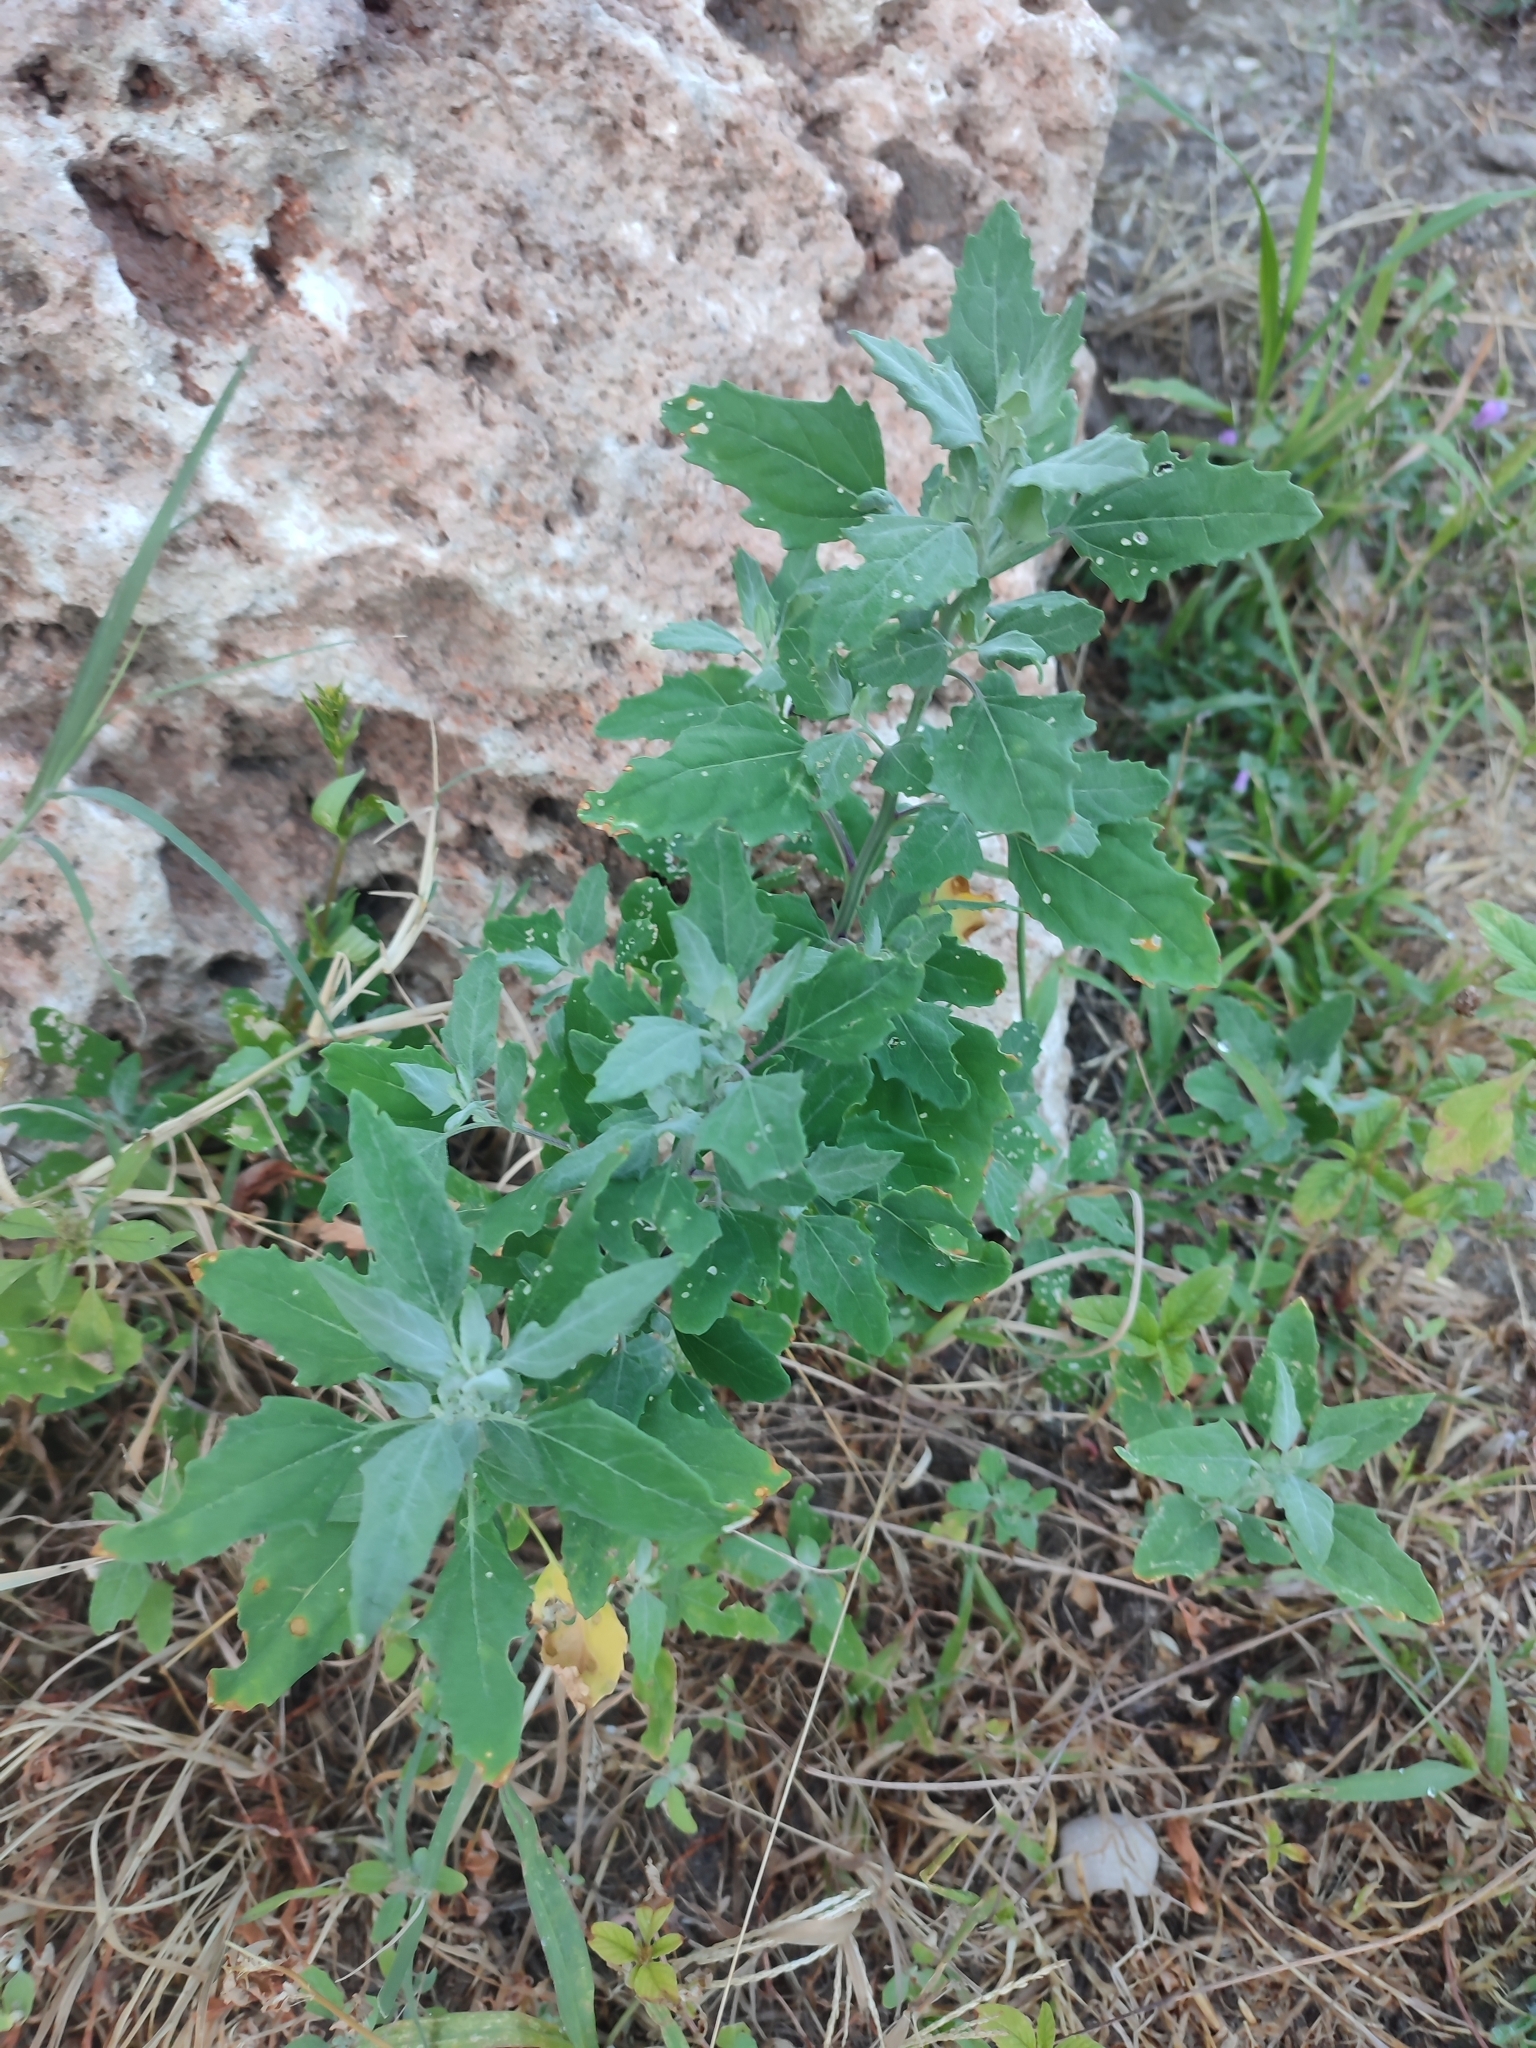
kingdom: Plantae
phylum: Tracheophyta
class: Magnoliopsida
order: Caryophyllales
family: Amaranthaceae
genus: Chenopodium
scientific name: Chenopodium album
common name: Fat-hen
